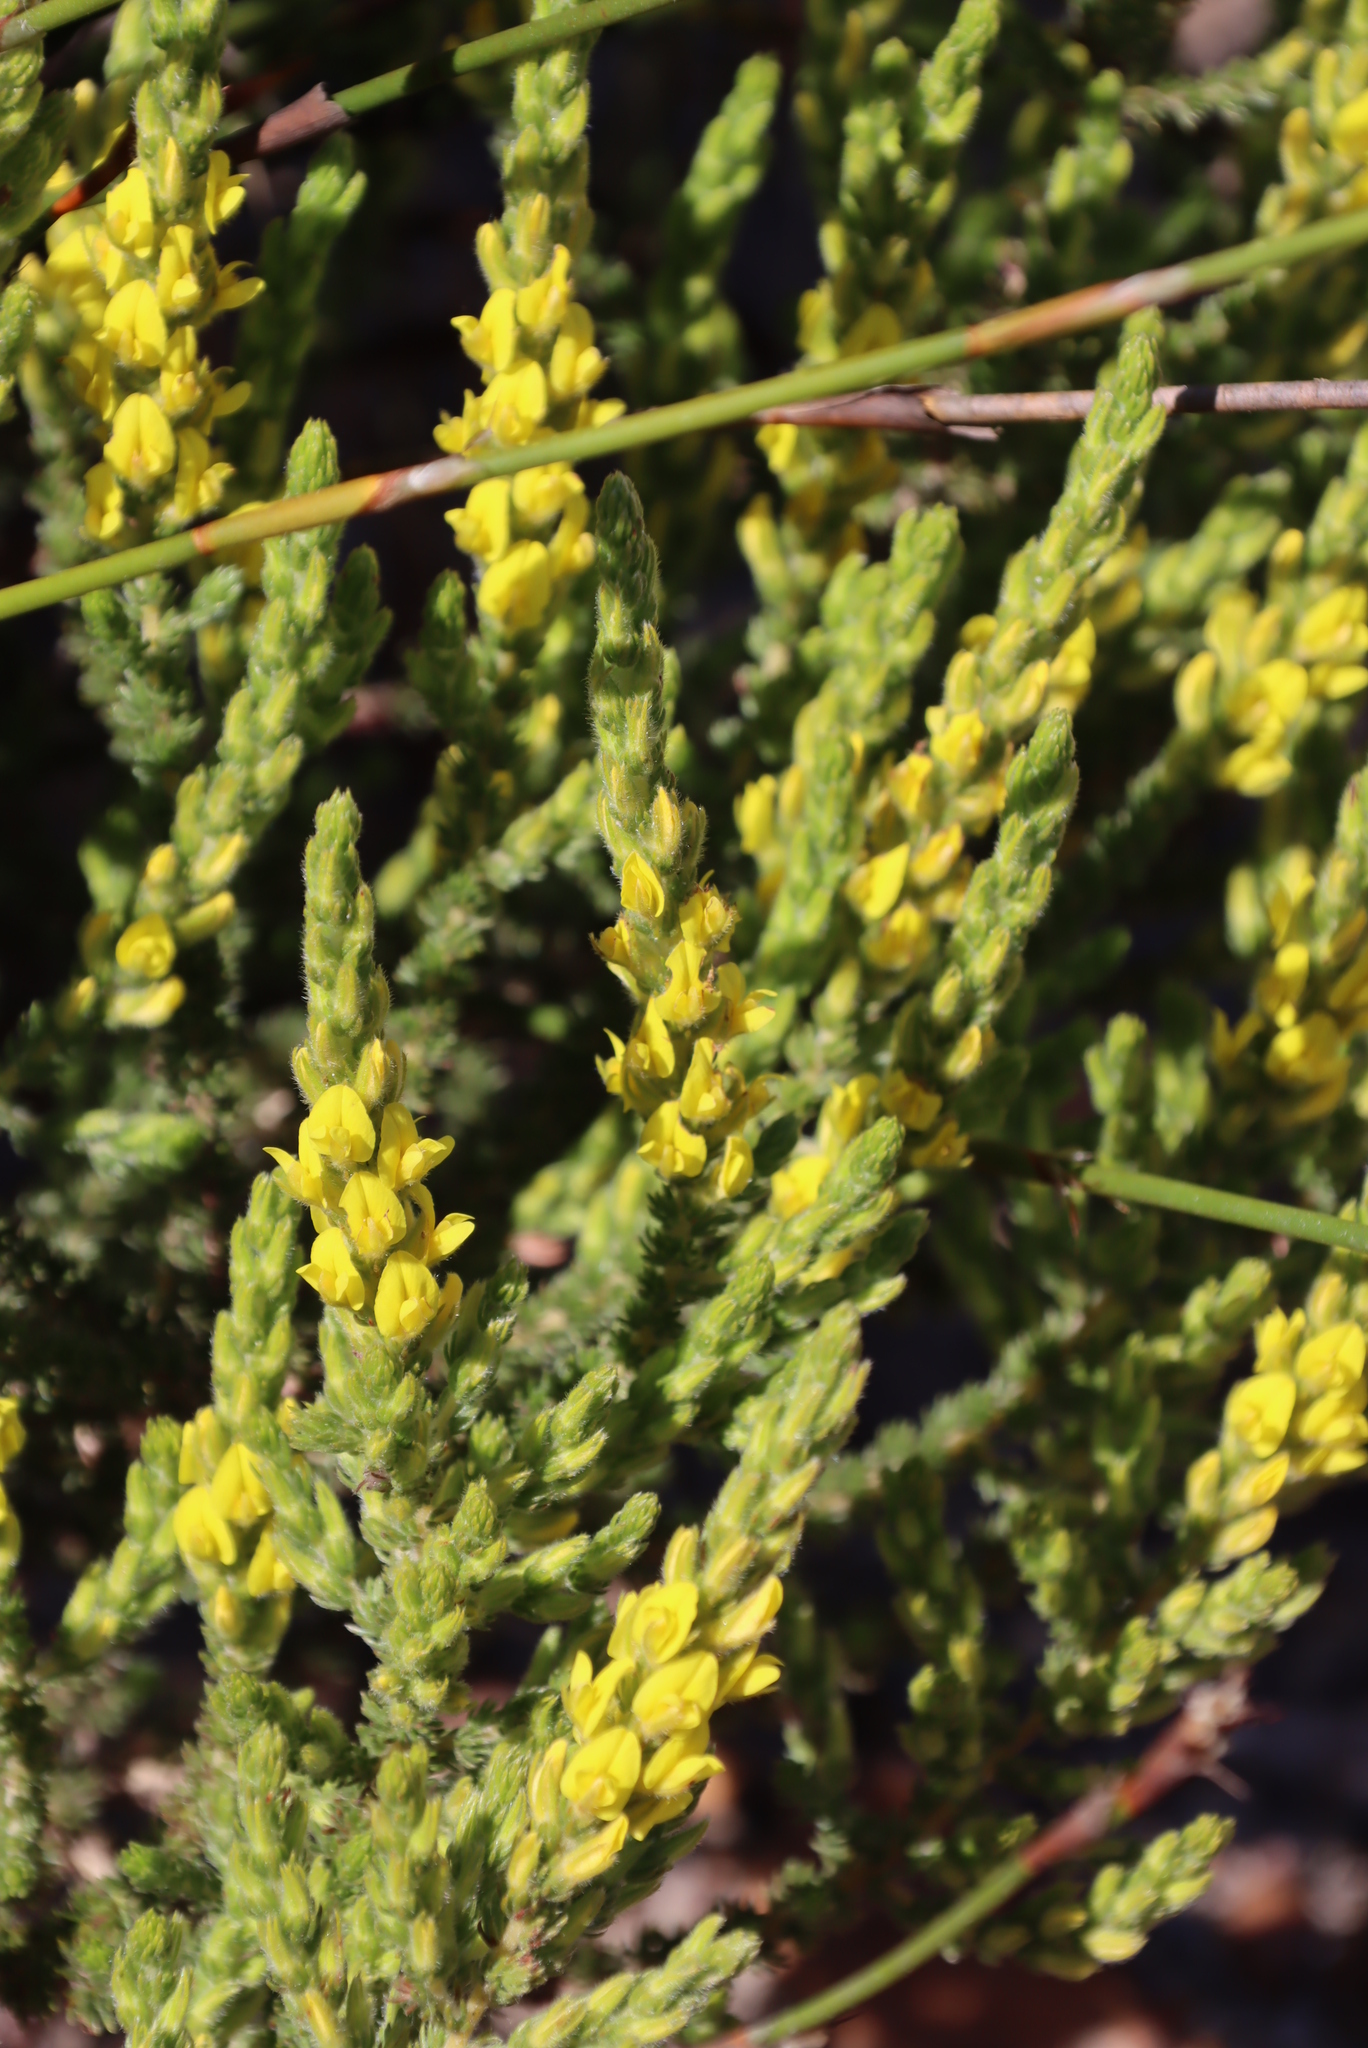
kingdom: Plantae
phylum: Tracheophyta
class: Magnoliopsida
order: Fabales
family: Fabaceae
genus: Aspalathus
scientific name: Aspalathus ericifolia
